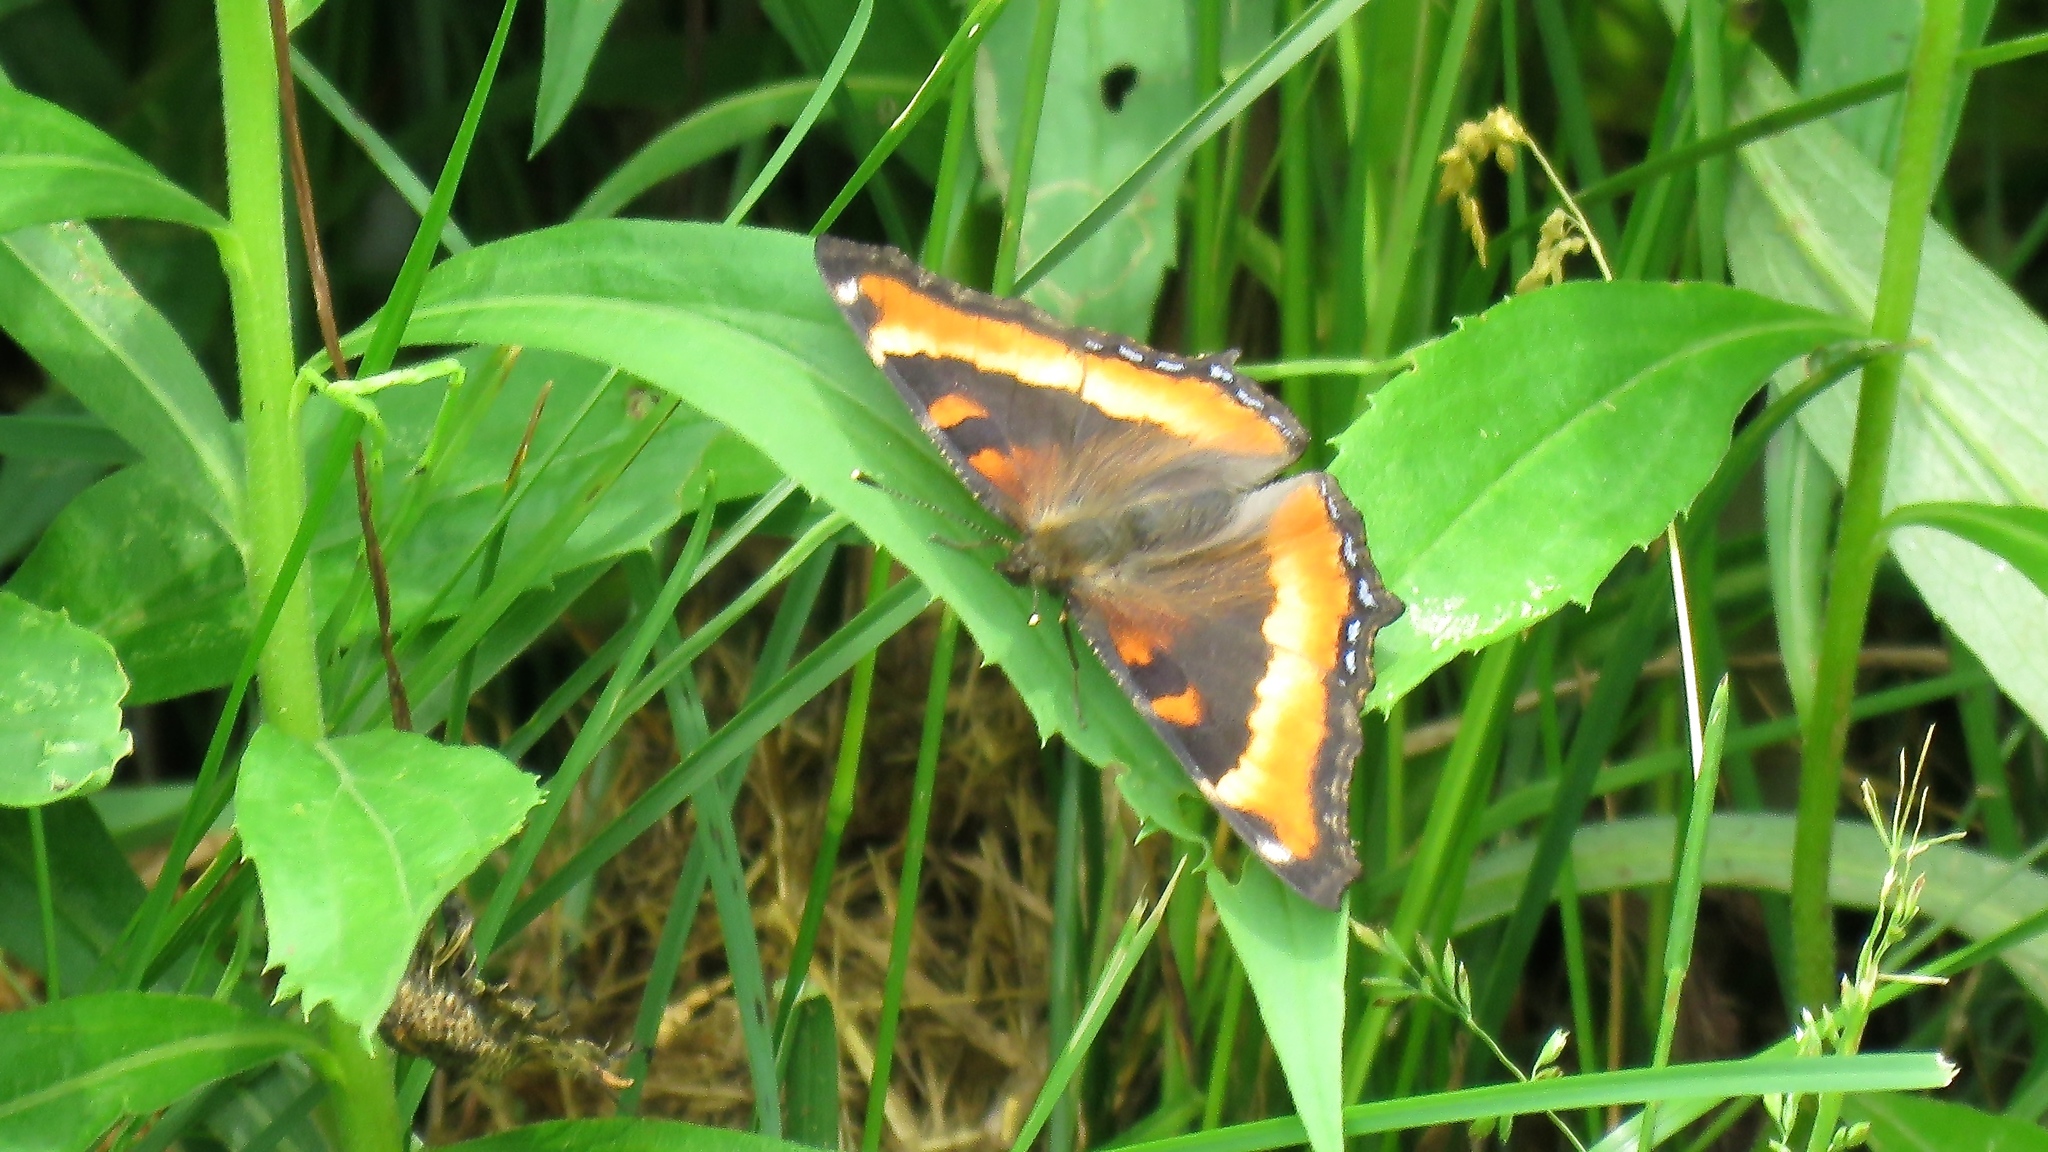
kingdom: Animalia
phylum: Arthropoda
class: Insecta
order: Lepidoptera
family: Nymphalidae
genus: Aglais
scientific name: Aglais milberti
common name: Milbert's tortoiseshell
